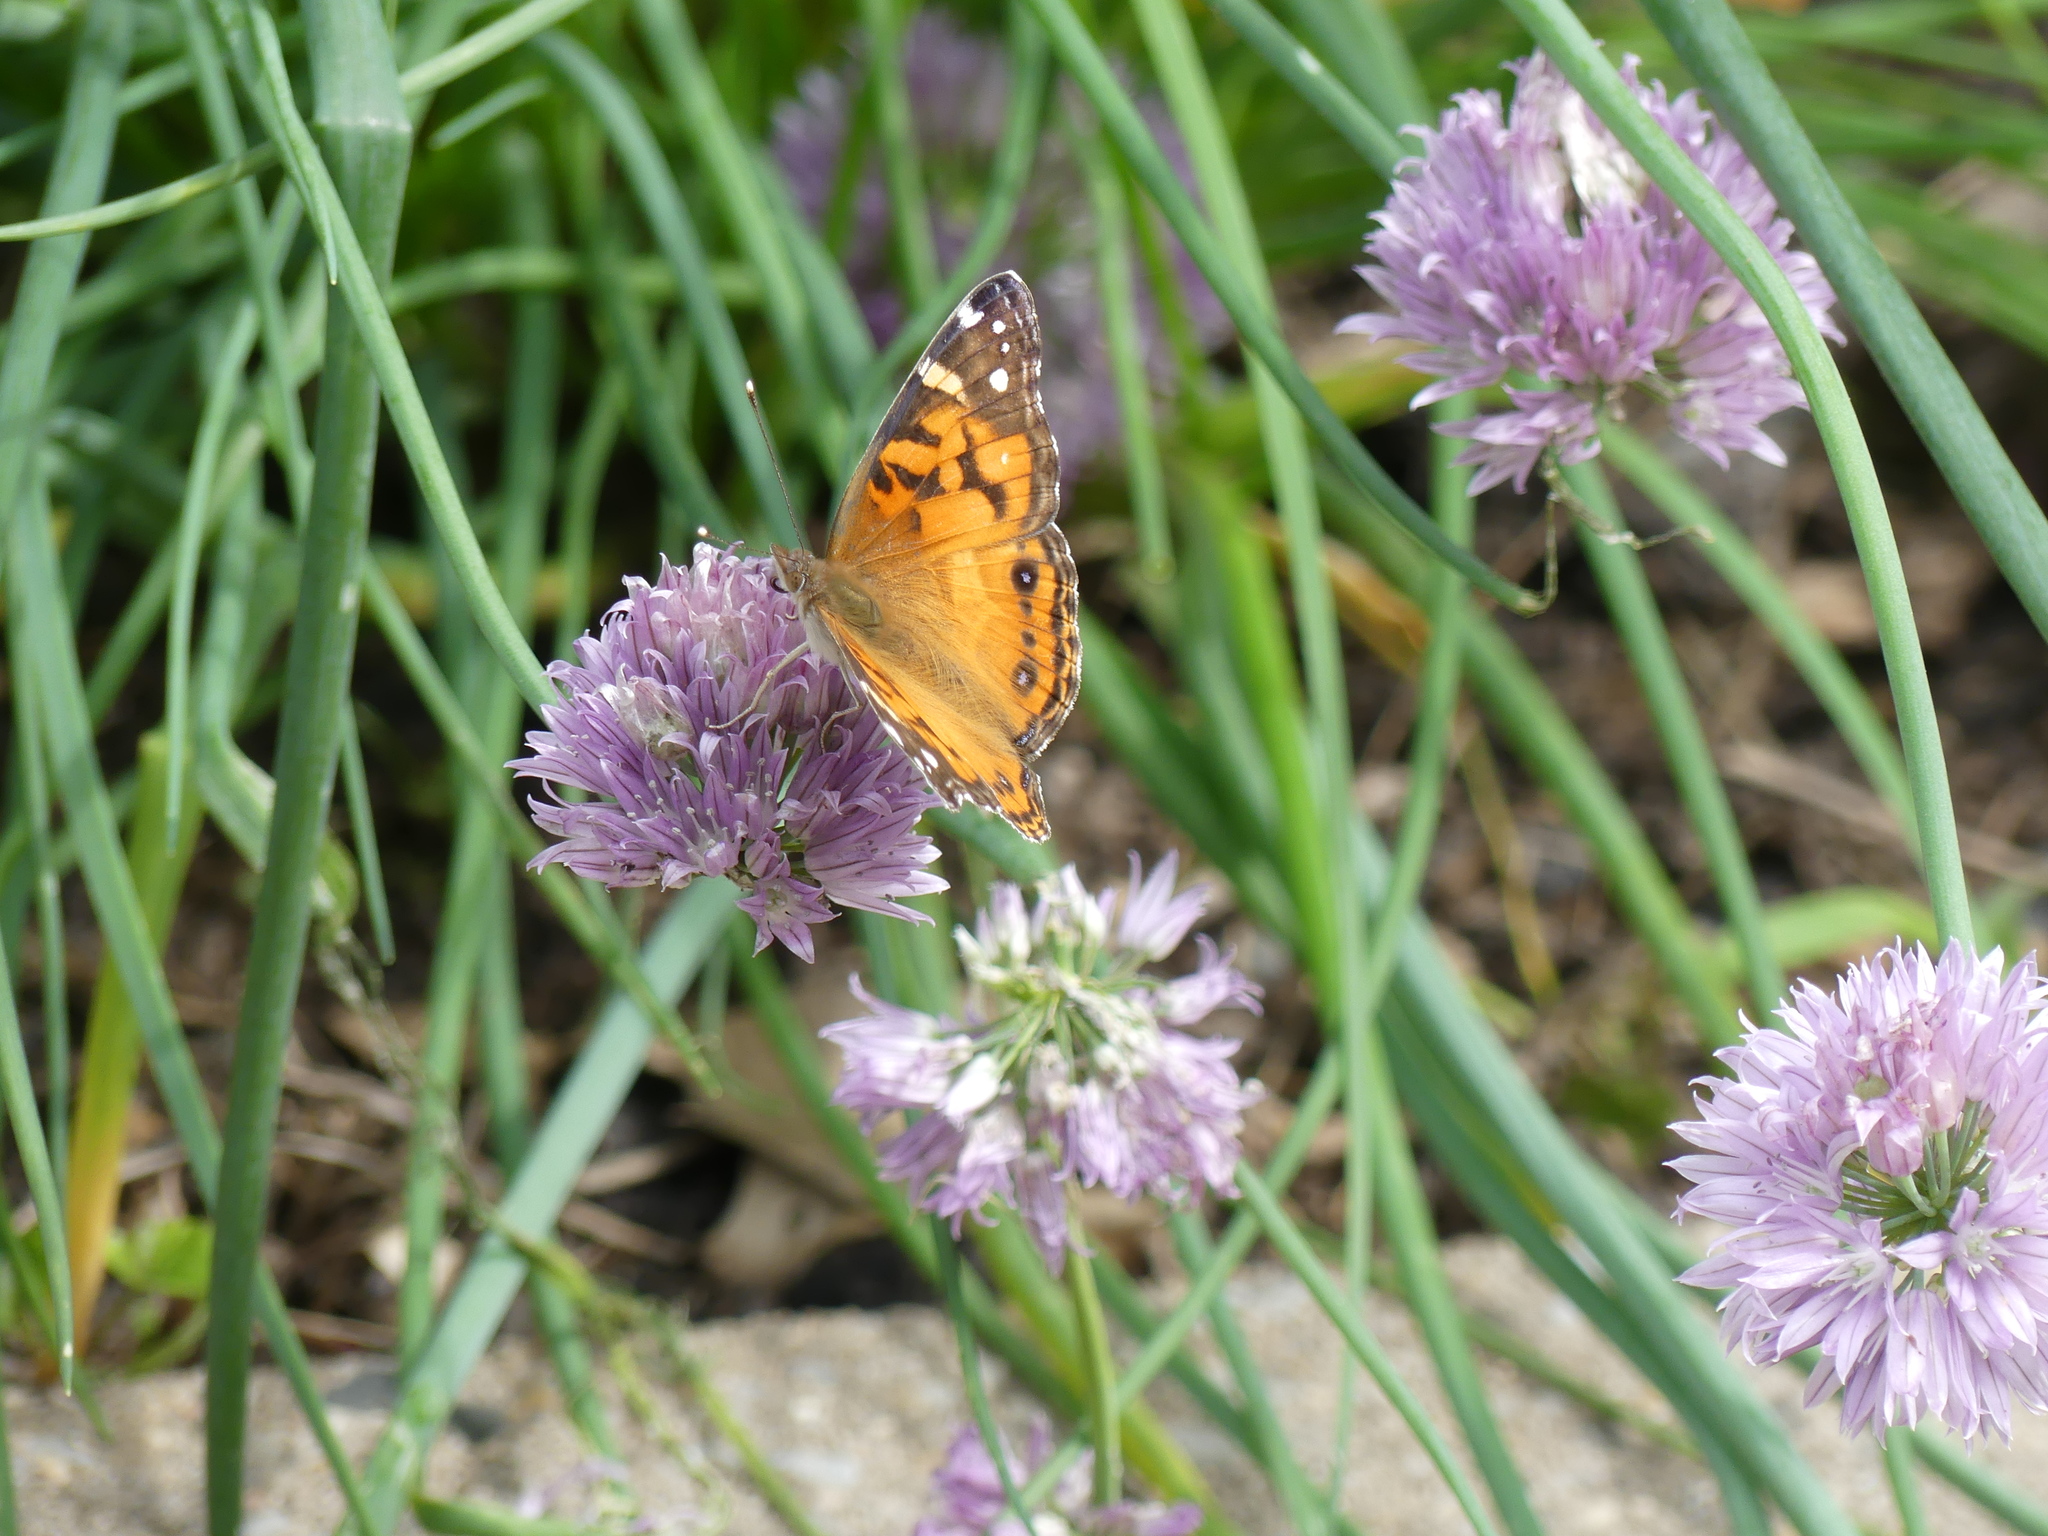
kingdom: Animalia
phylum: Arthropoda
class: Insecta
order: Lepidoptera
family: Nymphalidae
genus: Vanessa
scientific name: Vanessa virginiensis
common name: American lady
